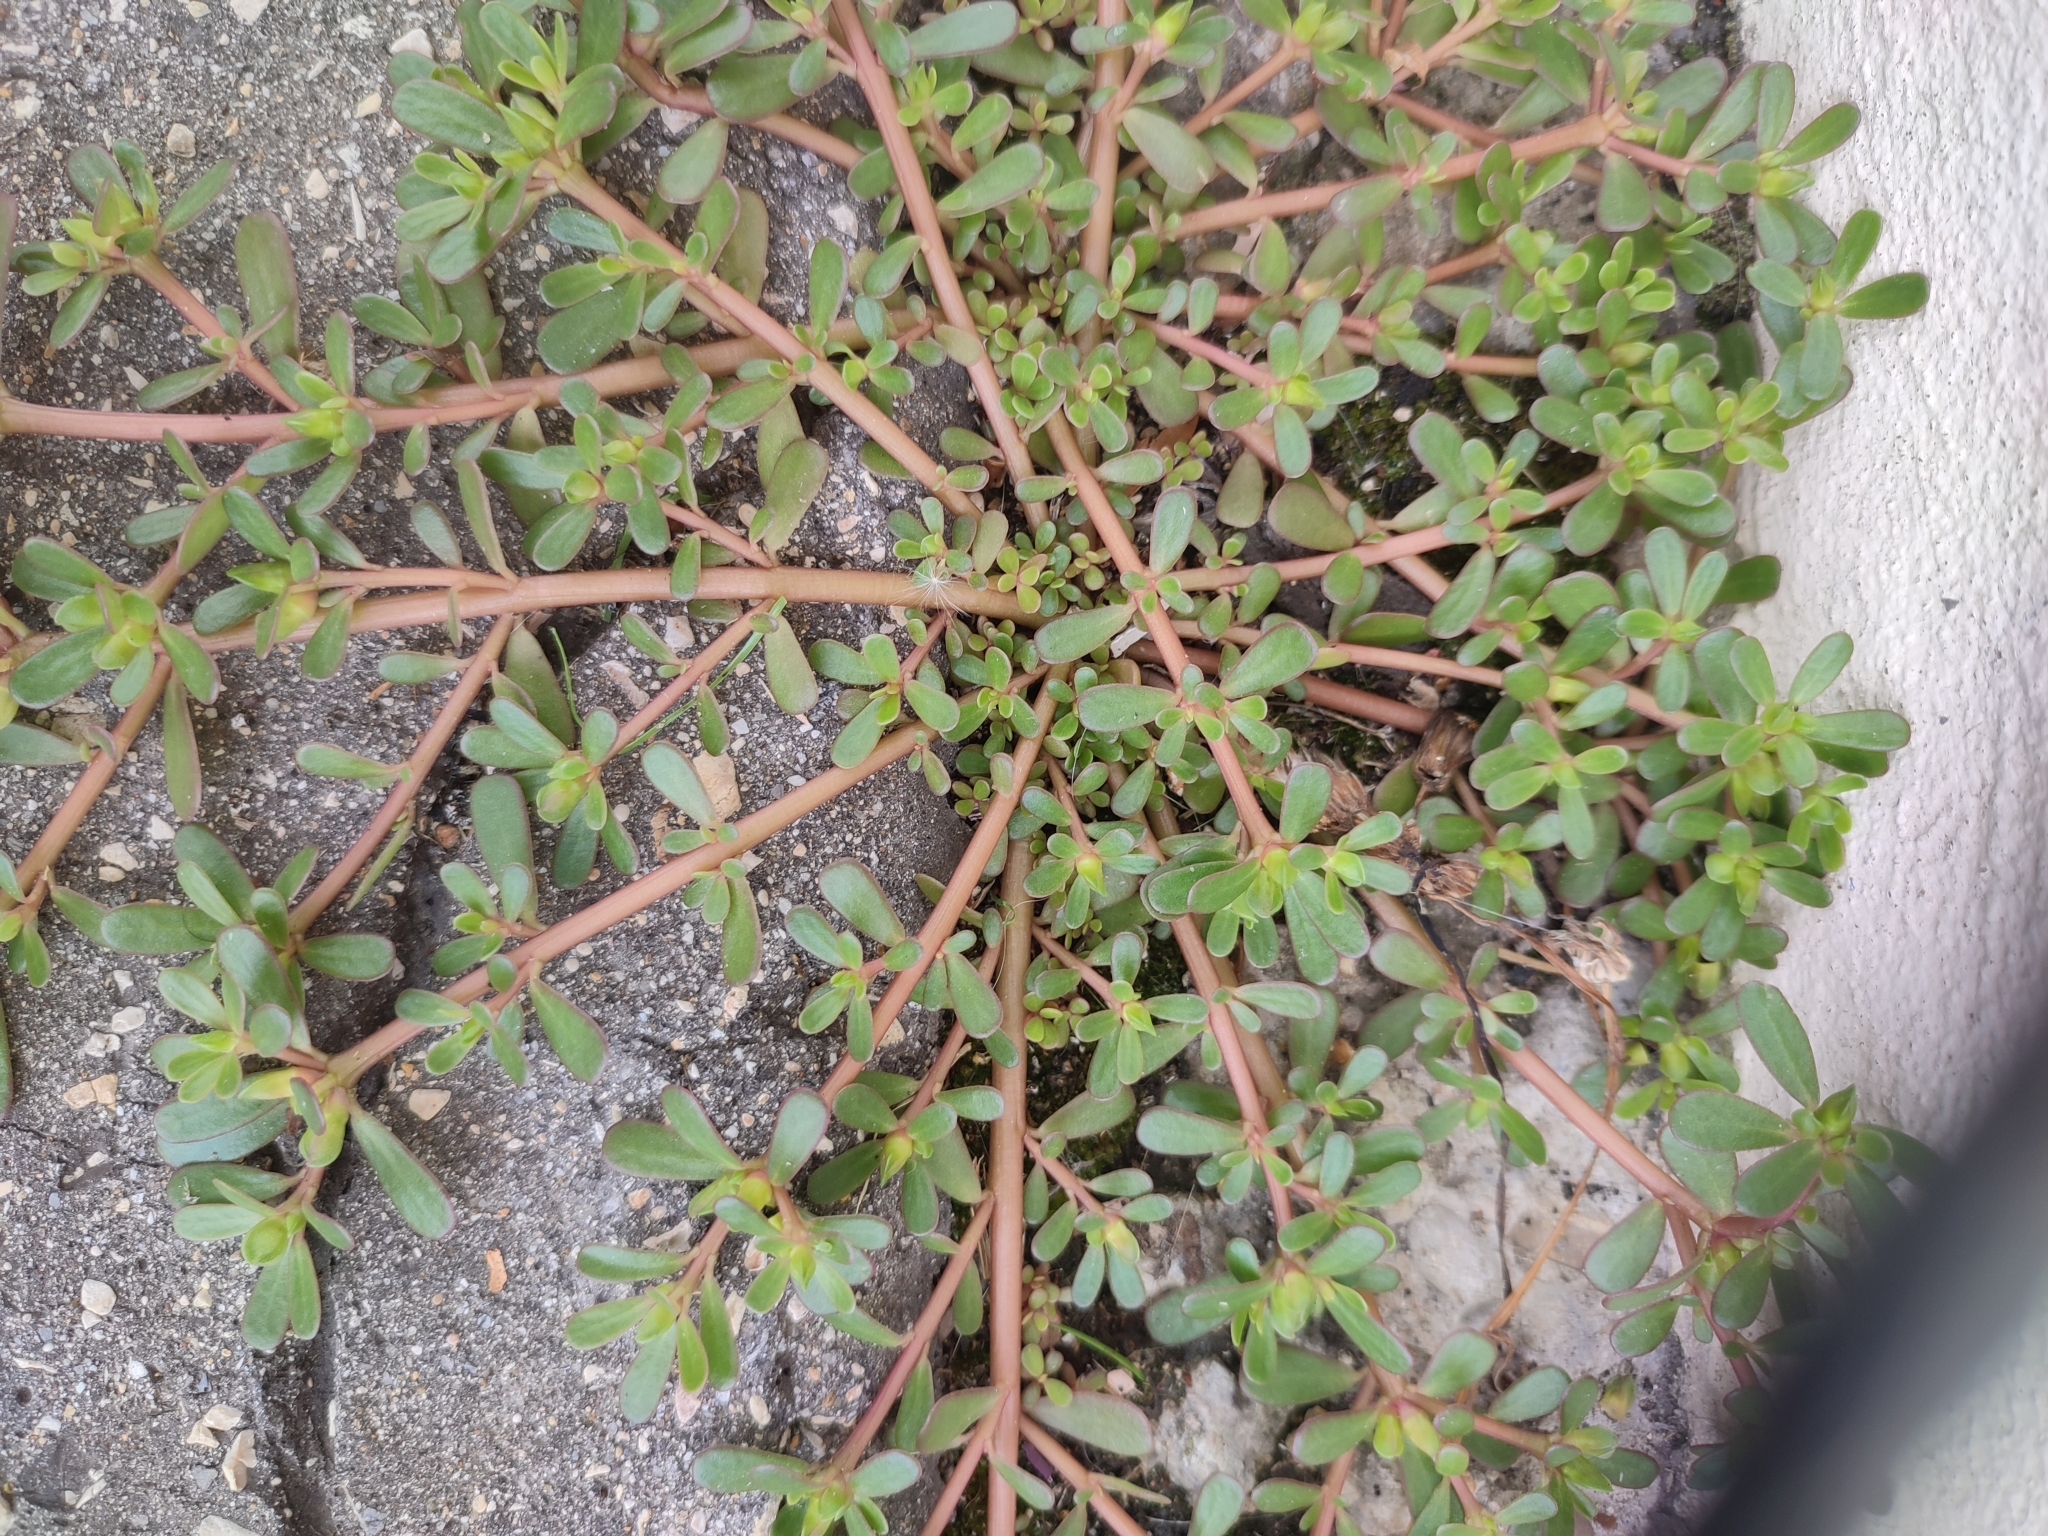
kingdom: Plantae
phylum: Tracheophyta
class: Magnoliopsida
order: Caryophyllales
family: Portulacaceae
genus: Portulaca
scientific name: Portulaca oleracea
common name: Common purslane
